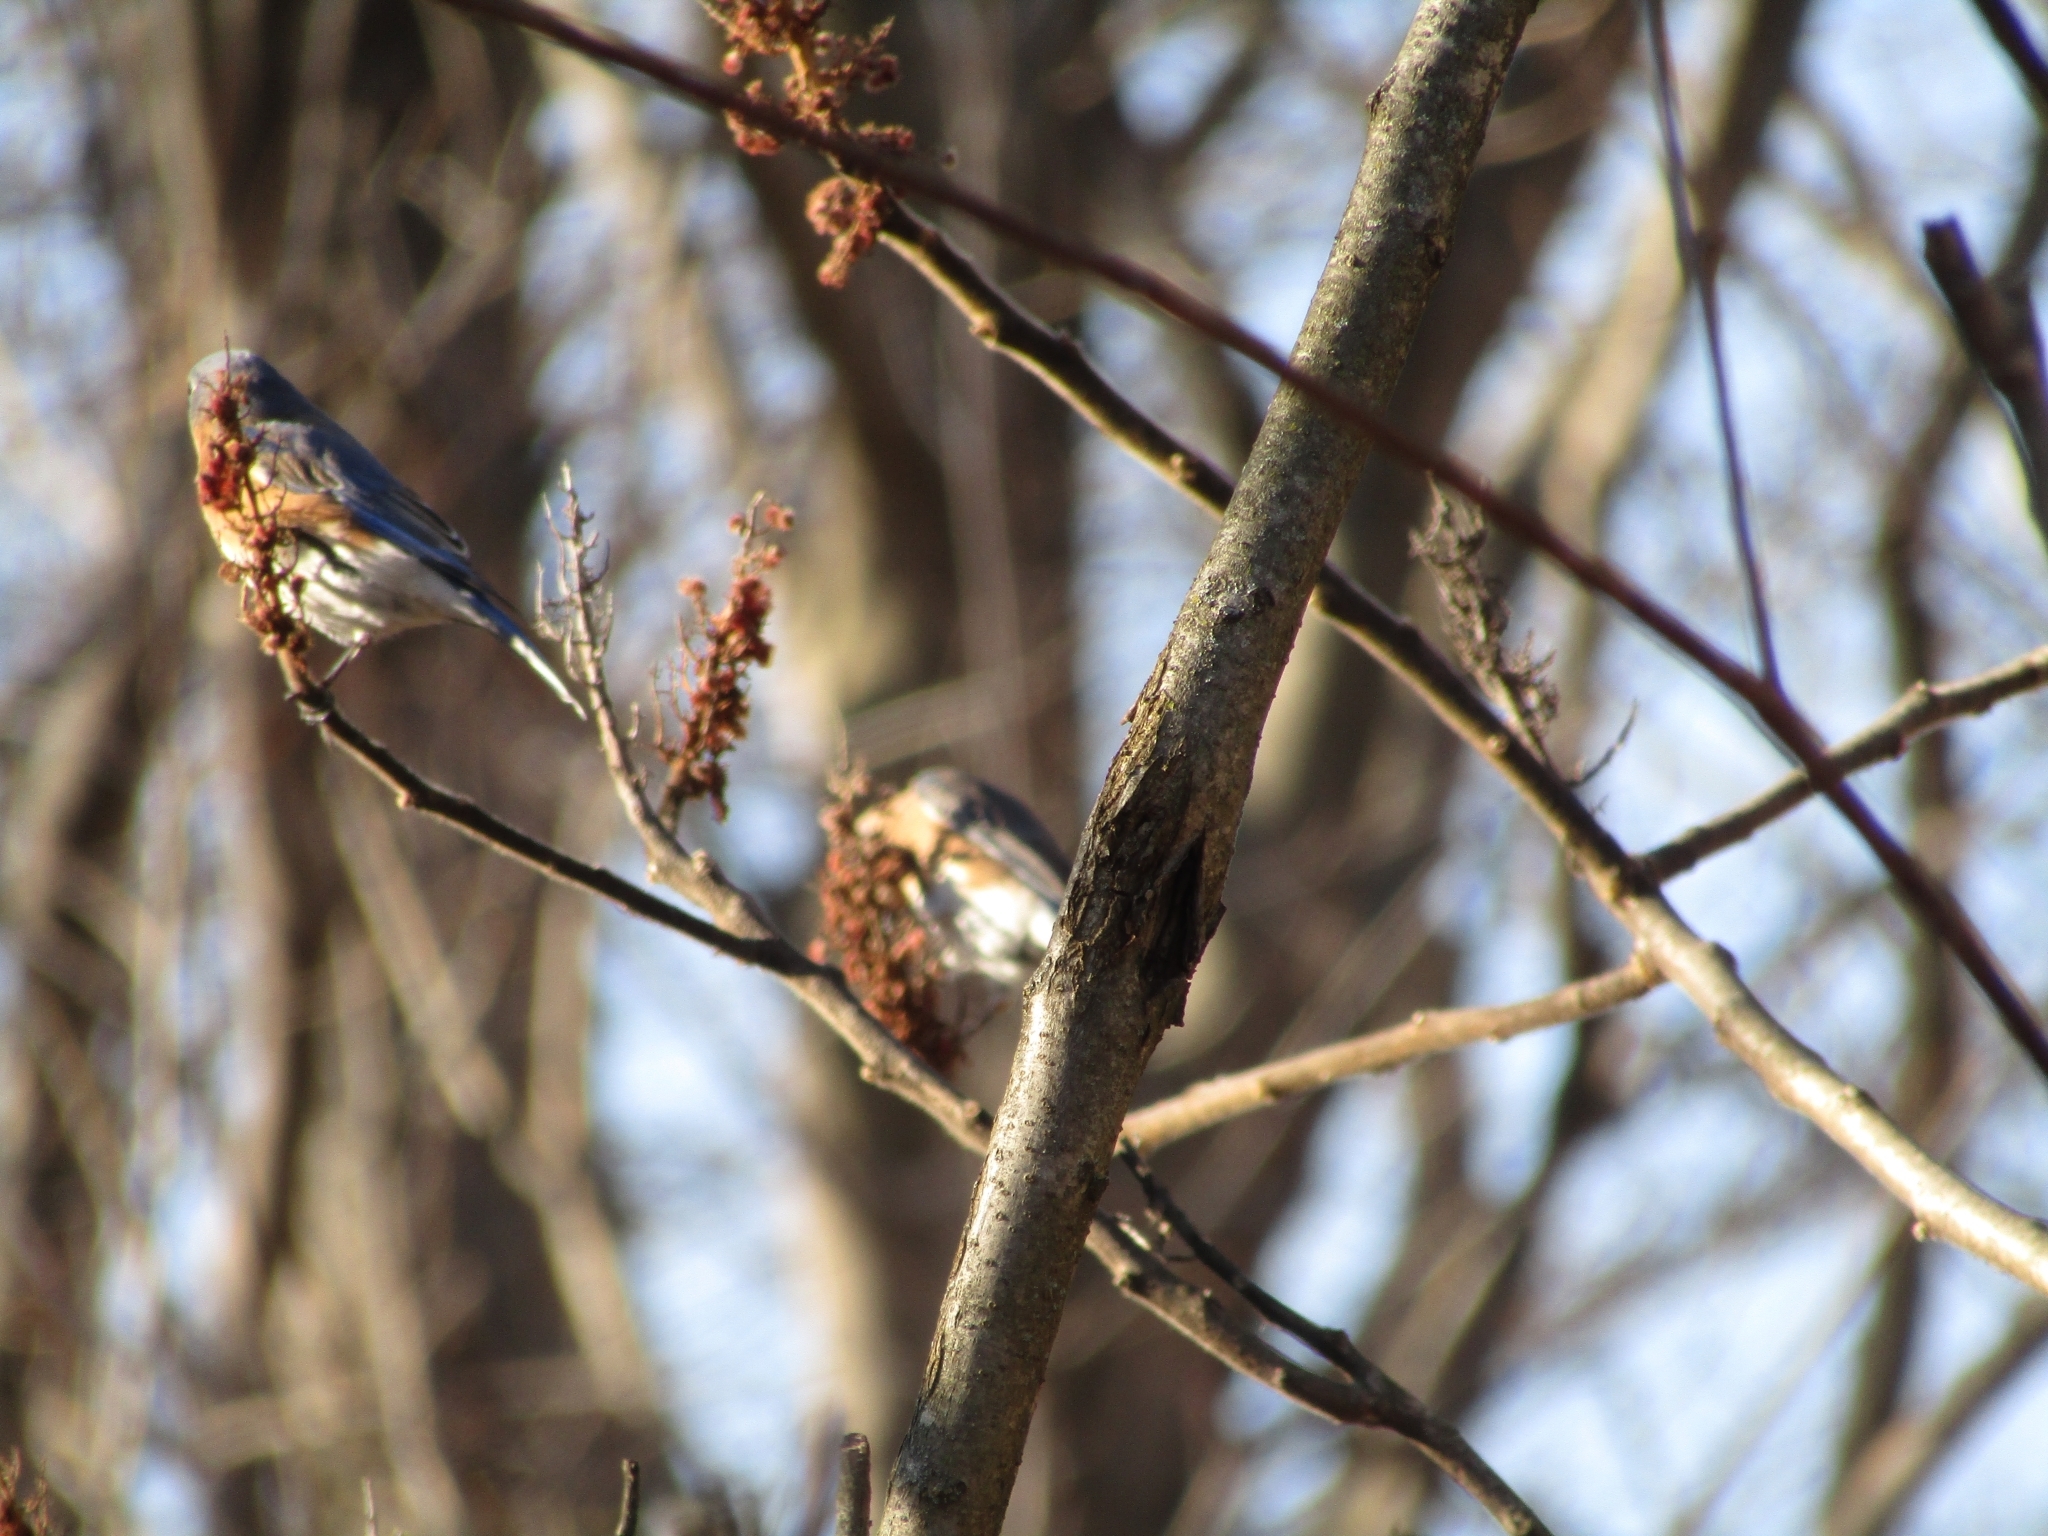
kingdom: Animalia
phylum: Chordata
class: Aves
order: Passeriformes
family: Turdidae
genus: Sialia
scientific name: Sialia sialis
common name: Eastern bluebird
